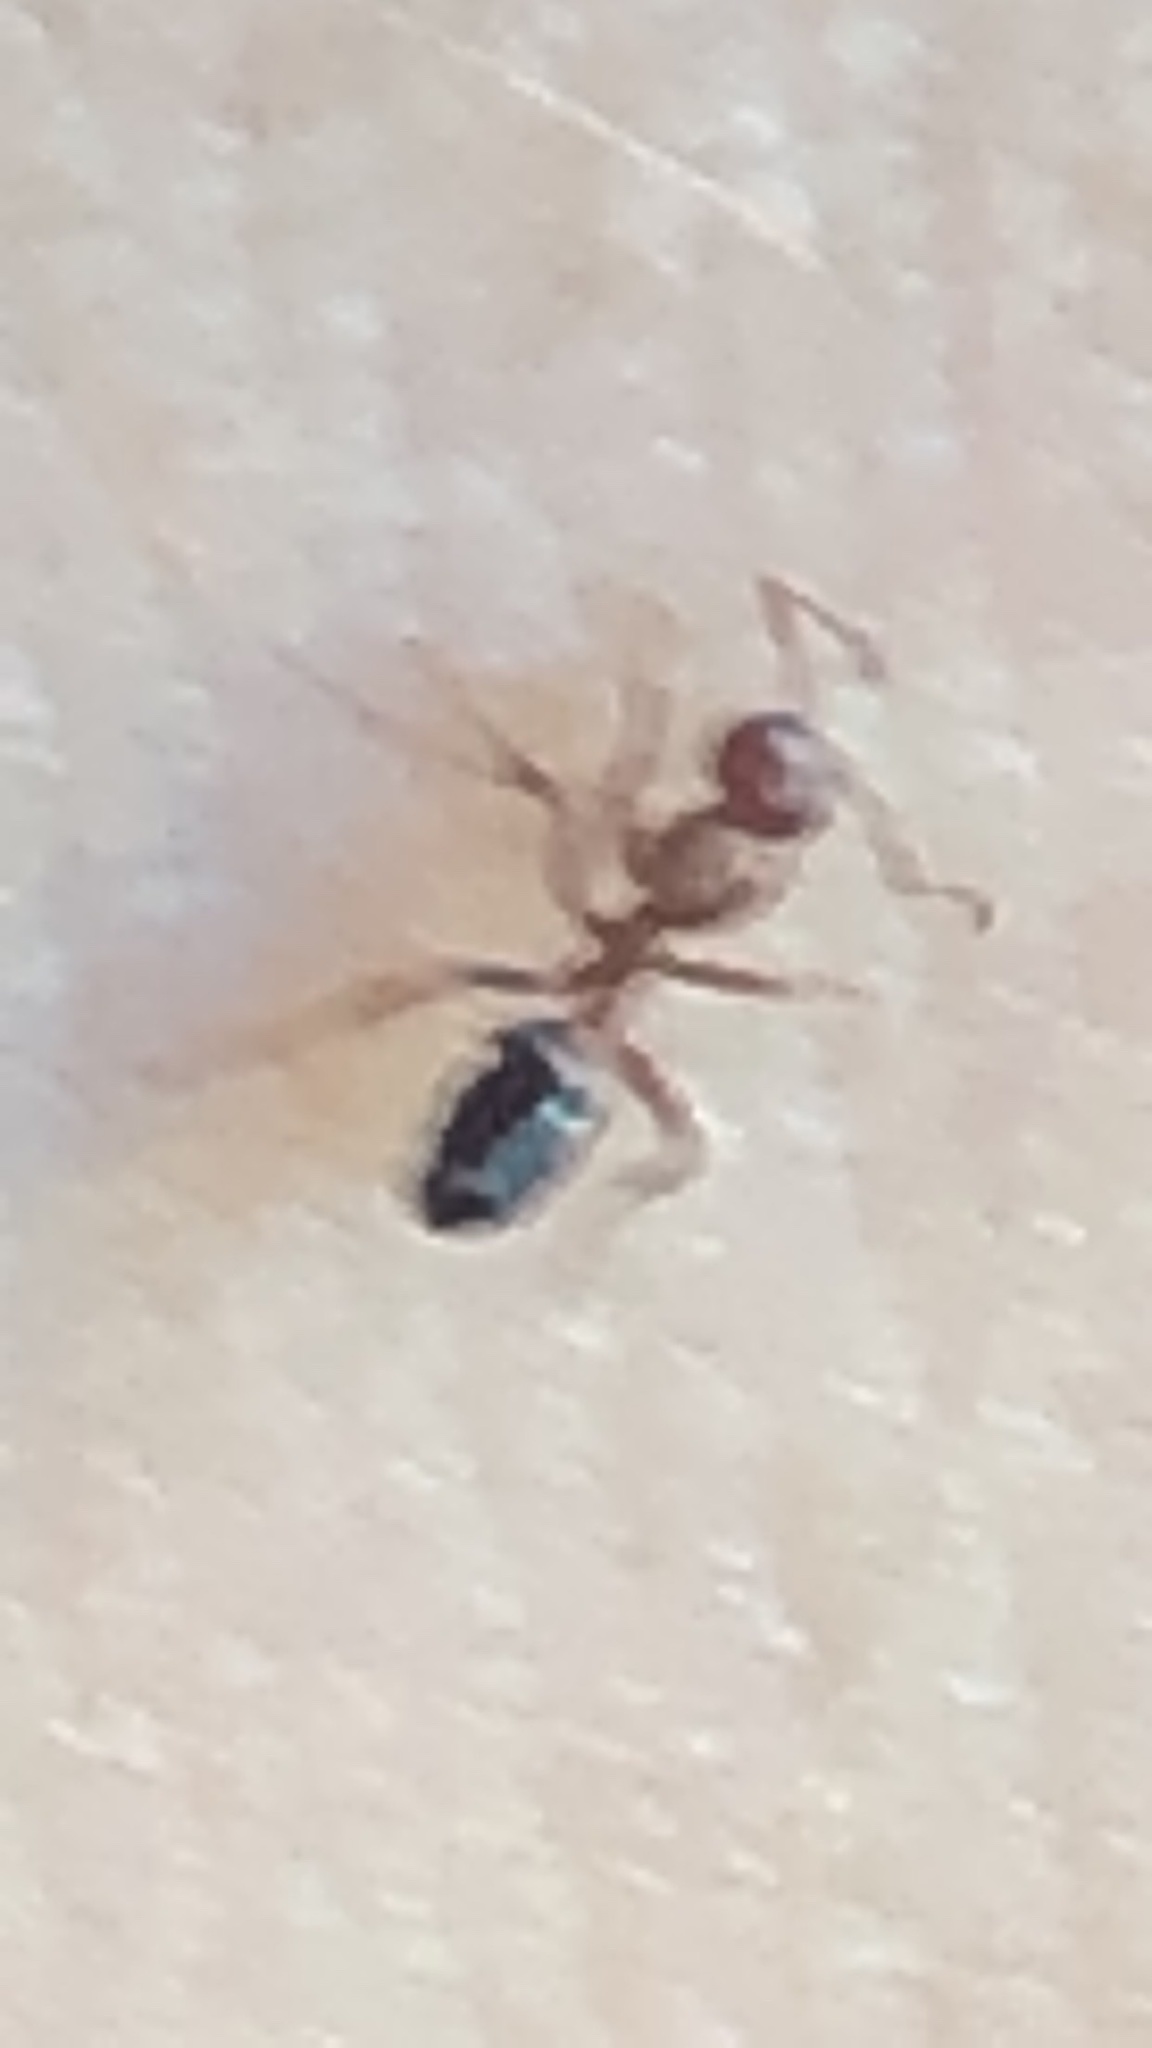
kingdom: Animalia
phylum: Arthropoda
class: Insecta
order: Hymenoptera
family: Formicidae
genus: Camponotus
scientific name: Camponotus snellingi
